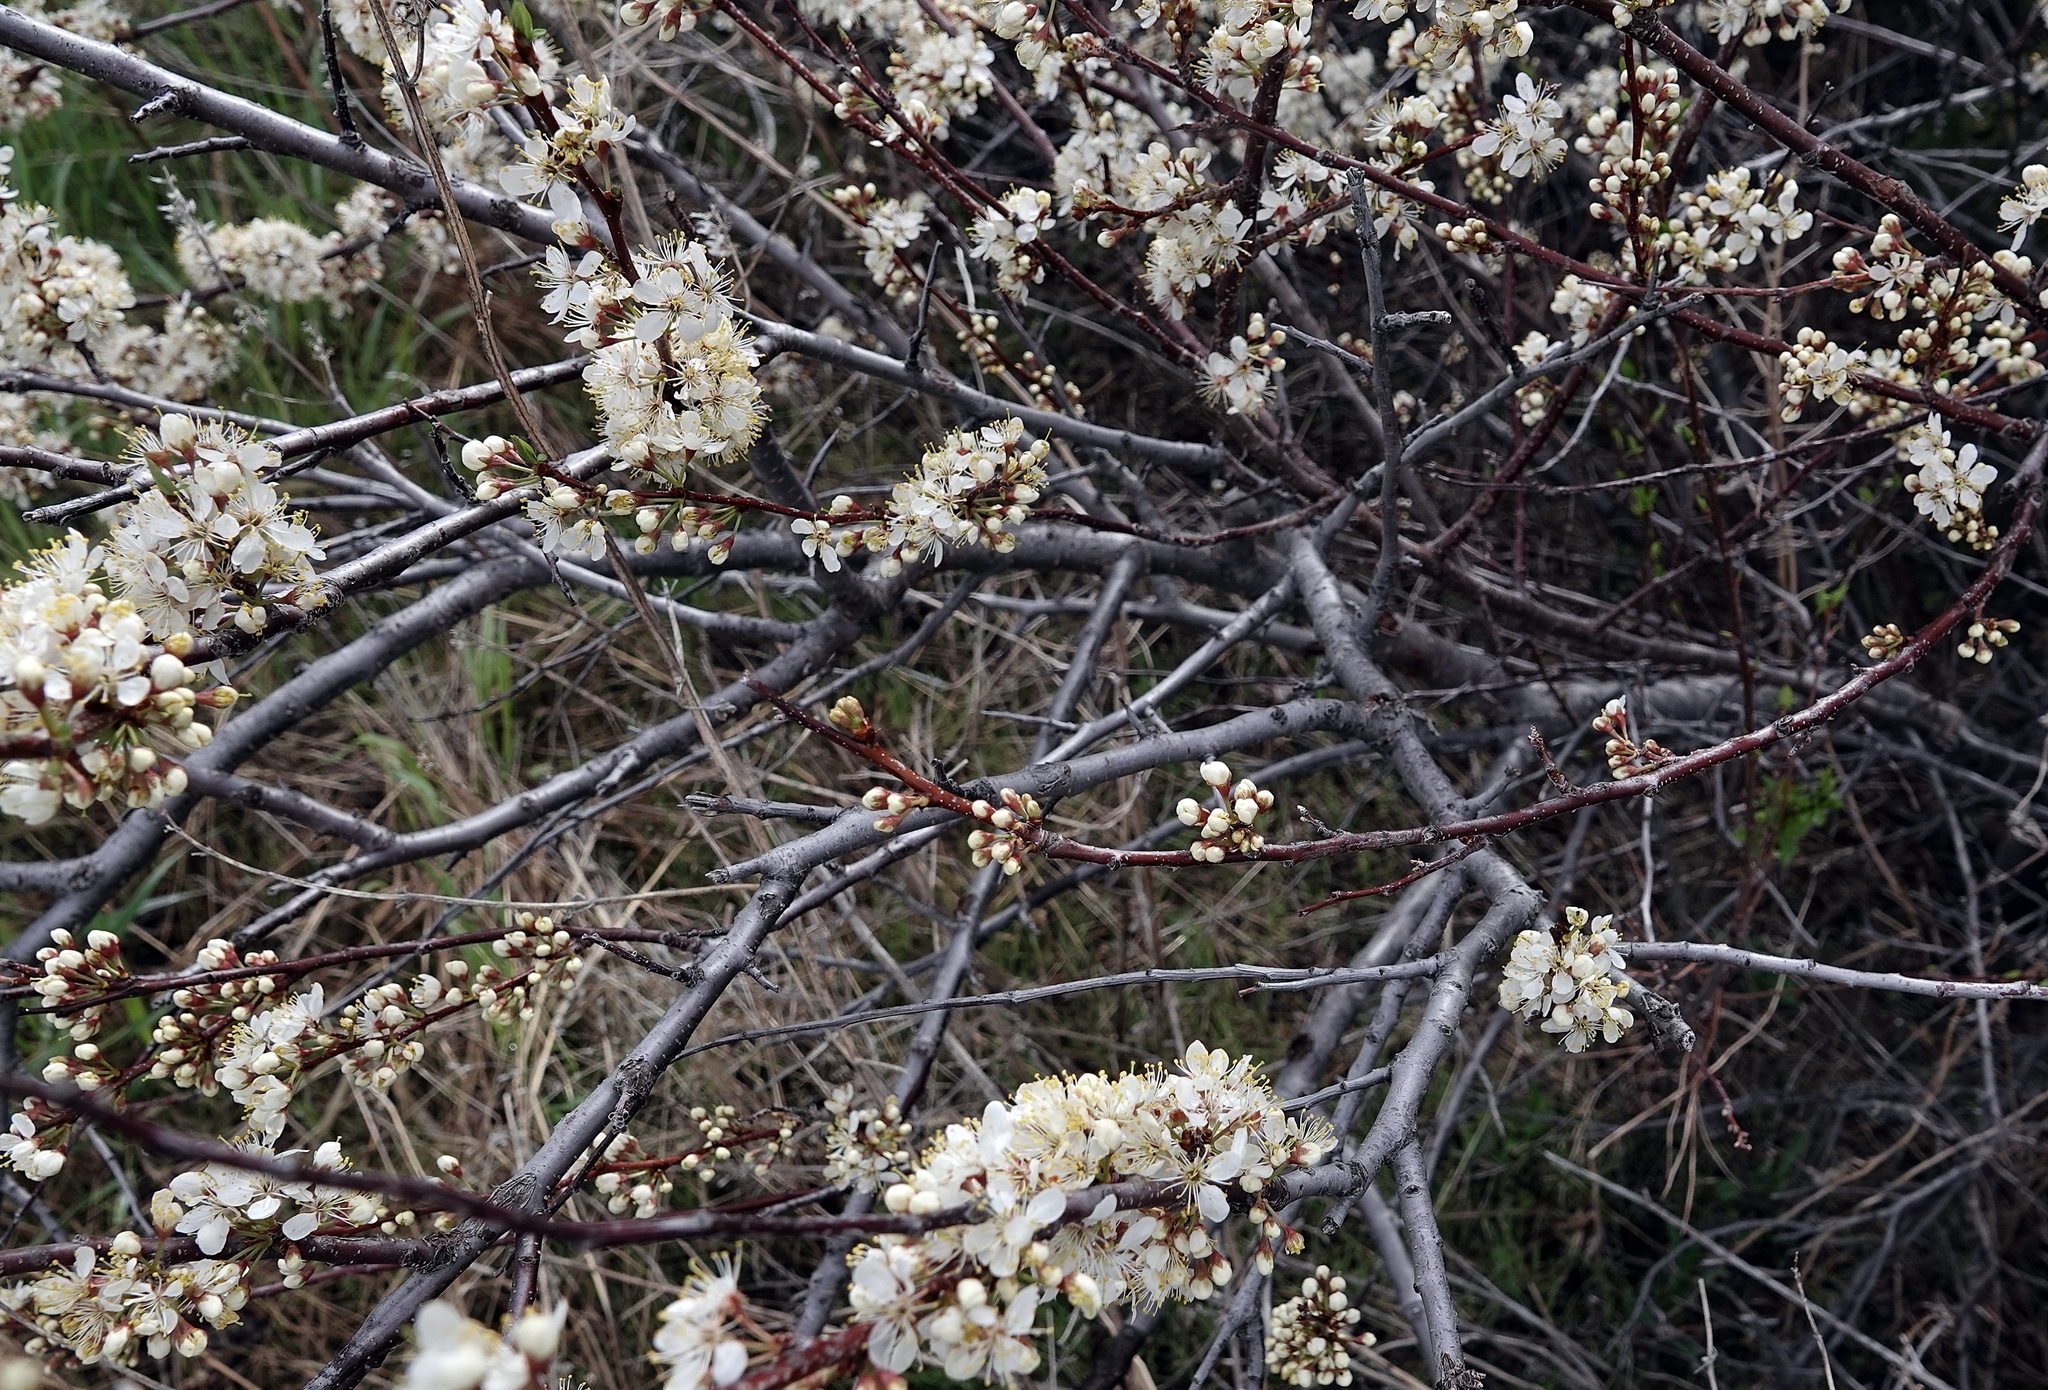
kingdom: Plantae
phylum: Tracheophyta
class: Magnoliopsida
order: Rosales
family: Rosaceae
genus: Prunus
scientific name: Prunus americana
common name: American plum
